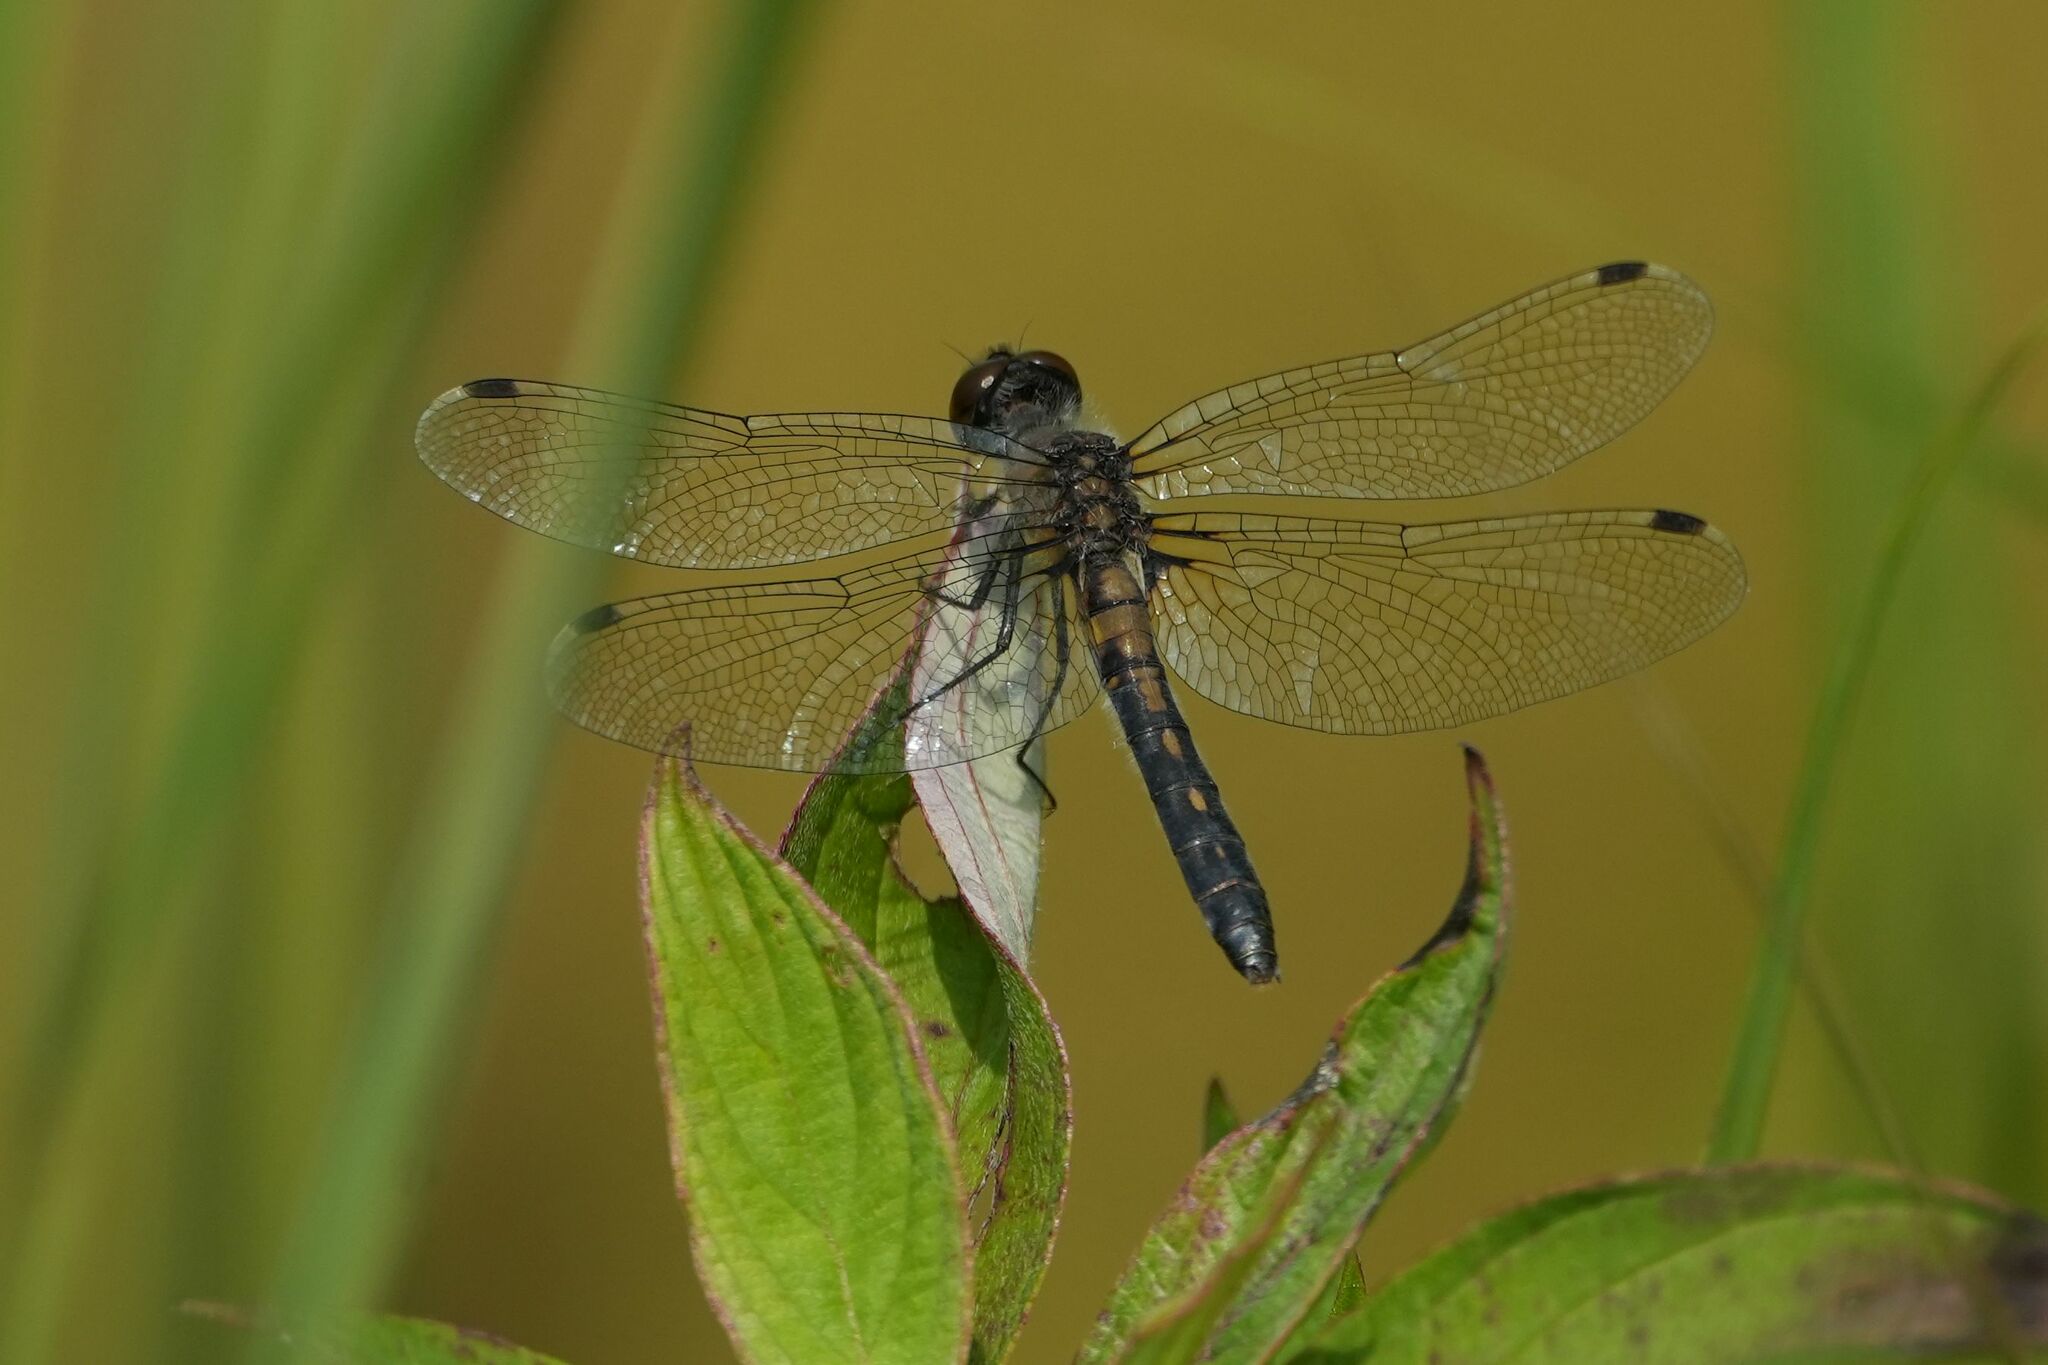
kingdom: Animalia
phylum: Arthropoda
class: Insecta
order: Odonata
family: Libellulidae
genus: Leucorrhinia
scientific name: Leucorrhinia frigida
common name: Frosted whiteface
